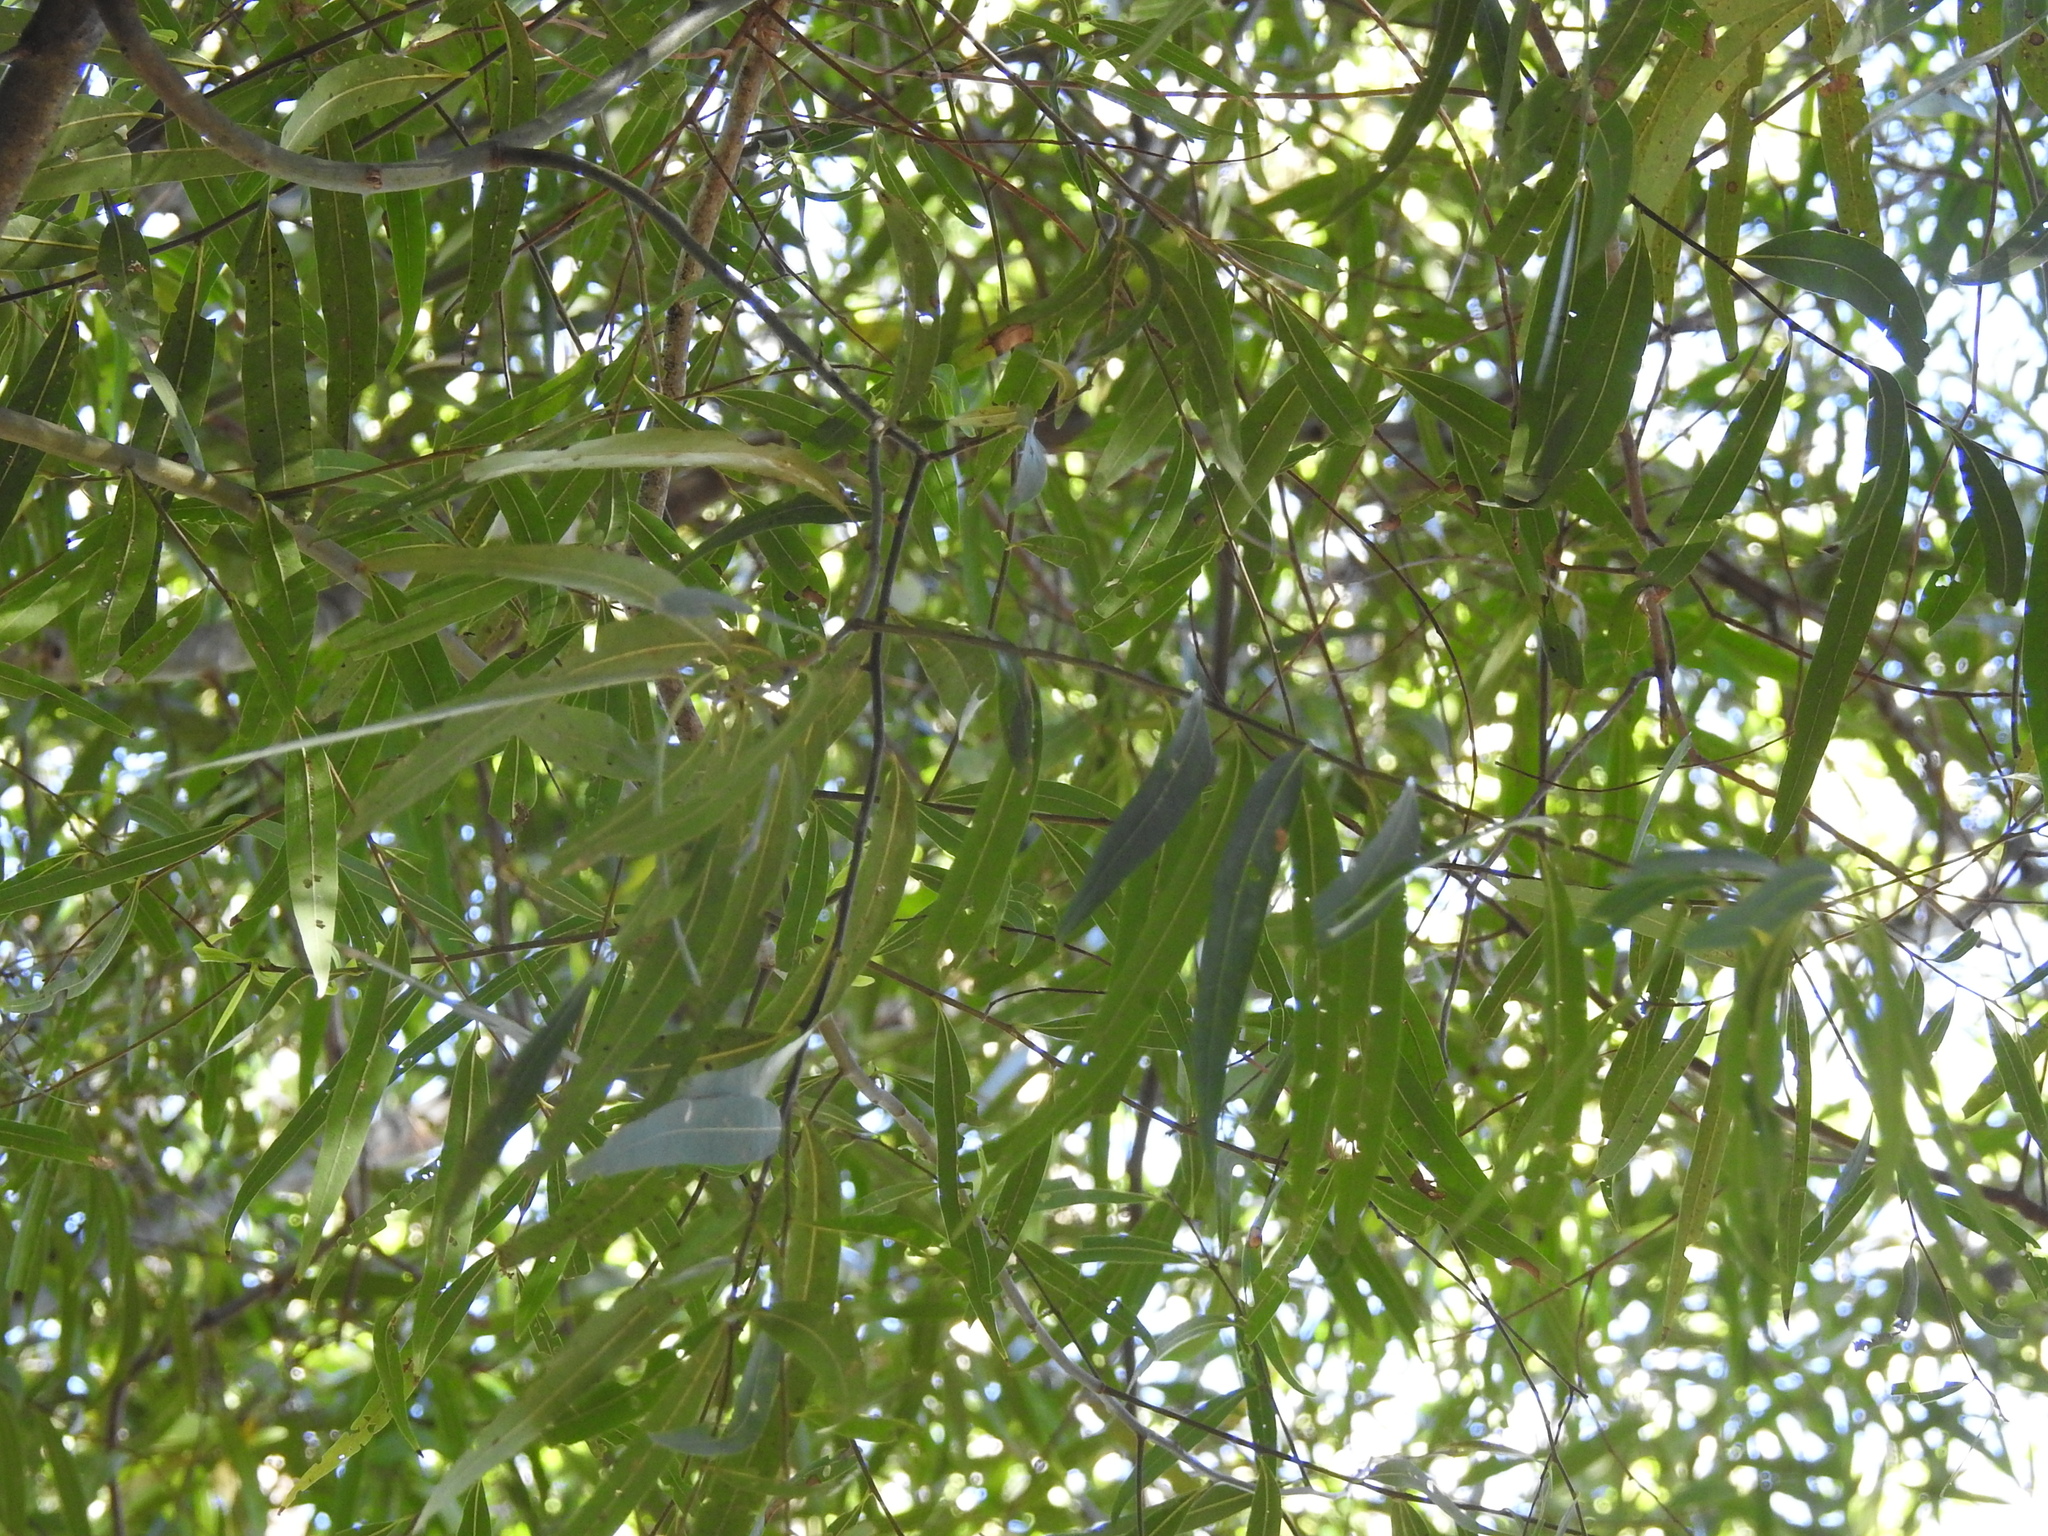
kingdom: Plantae
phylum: Tracheophyta
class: Magnoliopsida
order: Laurales
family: Lauraceae
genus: Nectandra
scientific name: Nectandra angustifolia
